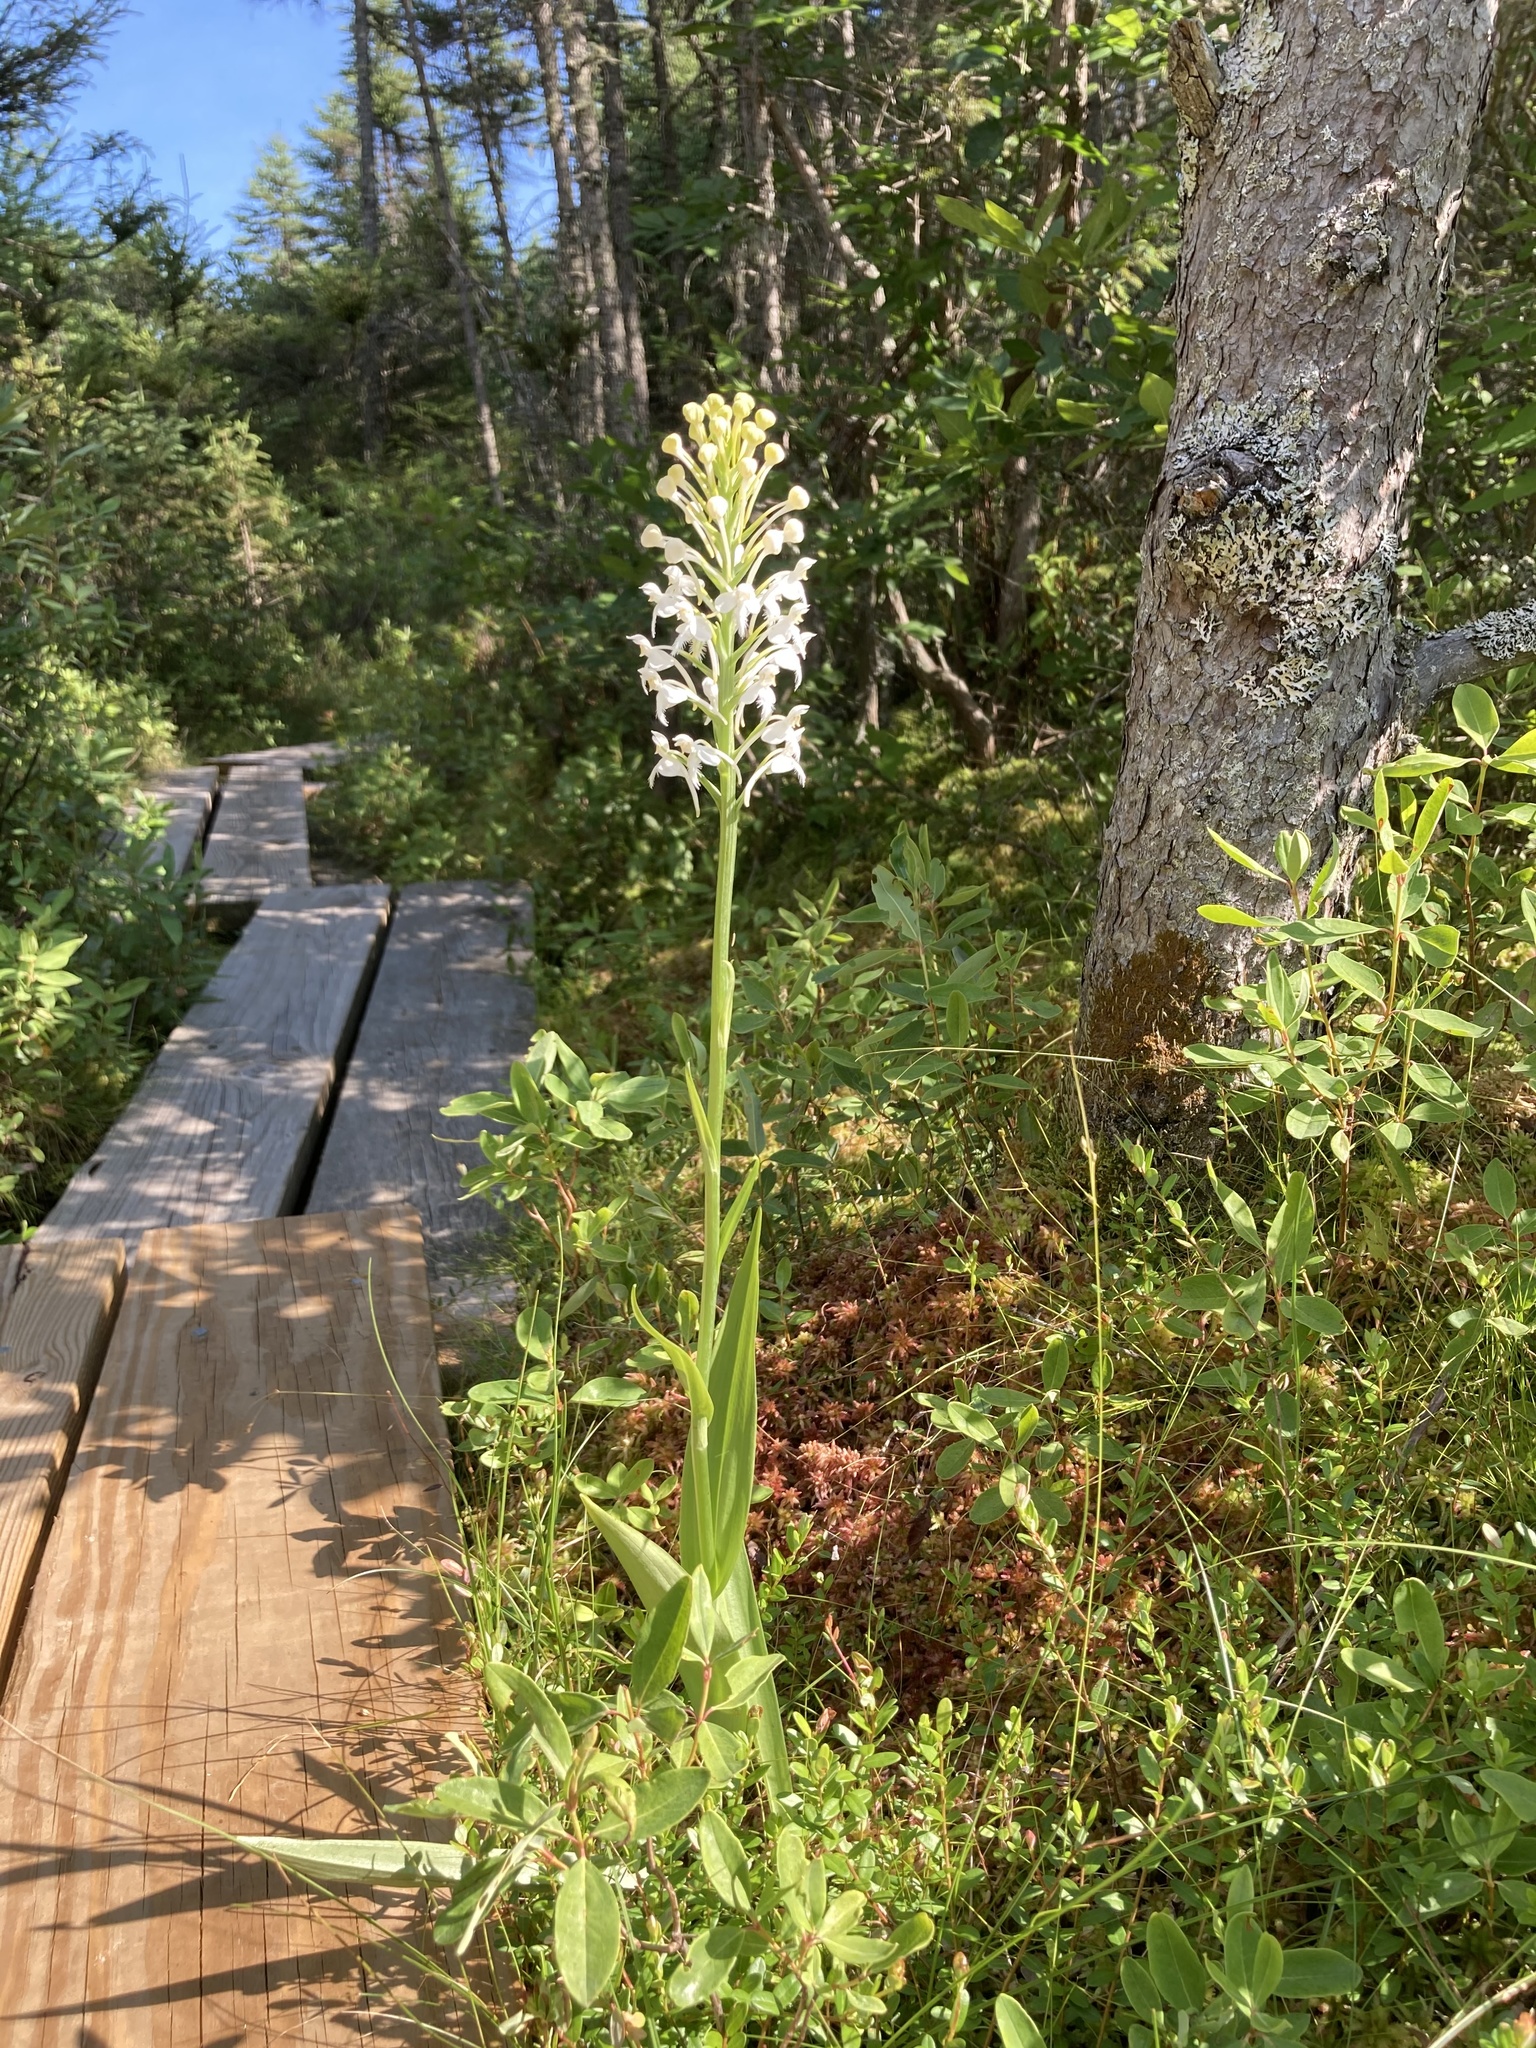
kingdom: Plantae
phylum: Tracheophyta
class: Liliopsida
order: Asparagales
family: Orchidaceae
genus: Platanthera
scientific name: Platanthera blephariglottis
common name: White fringed orchid
